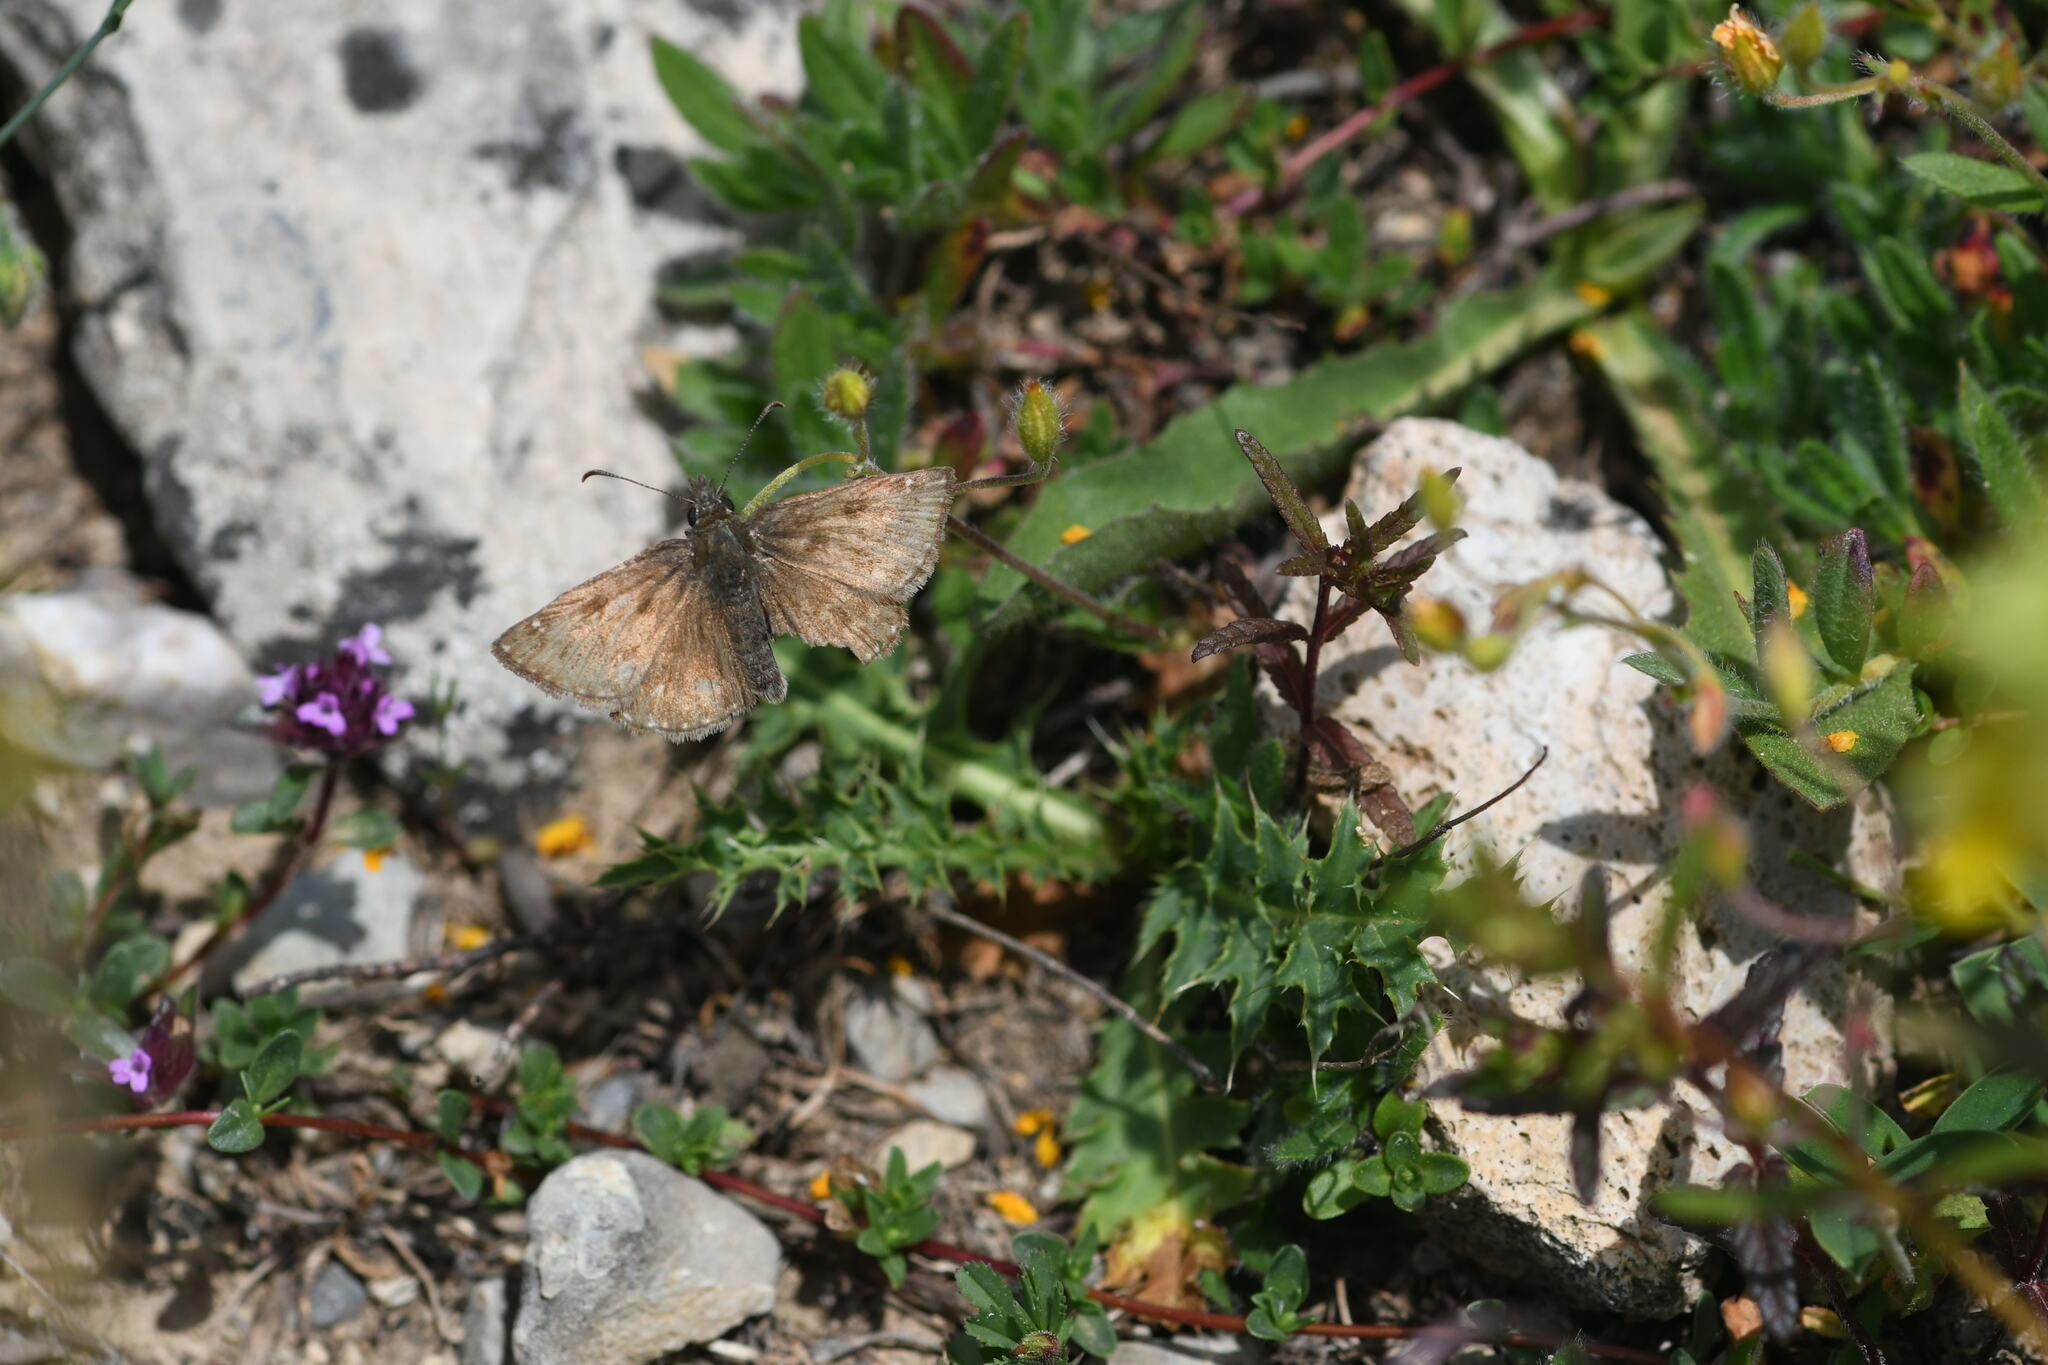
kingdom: Animalia
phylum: Arthropoda
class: Insecta
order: Lepidoptera
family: Hesperiidae
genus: Erynnis
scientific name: Erynnis tages
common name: Dingy skipper
